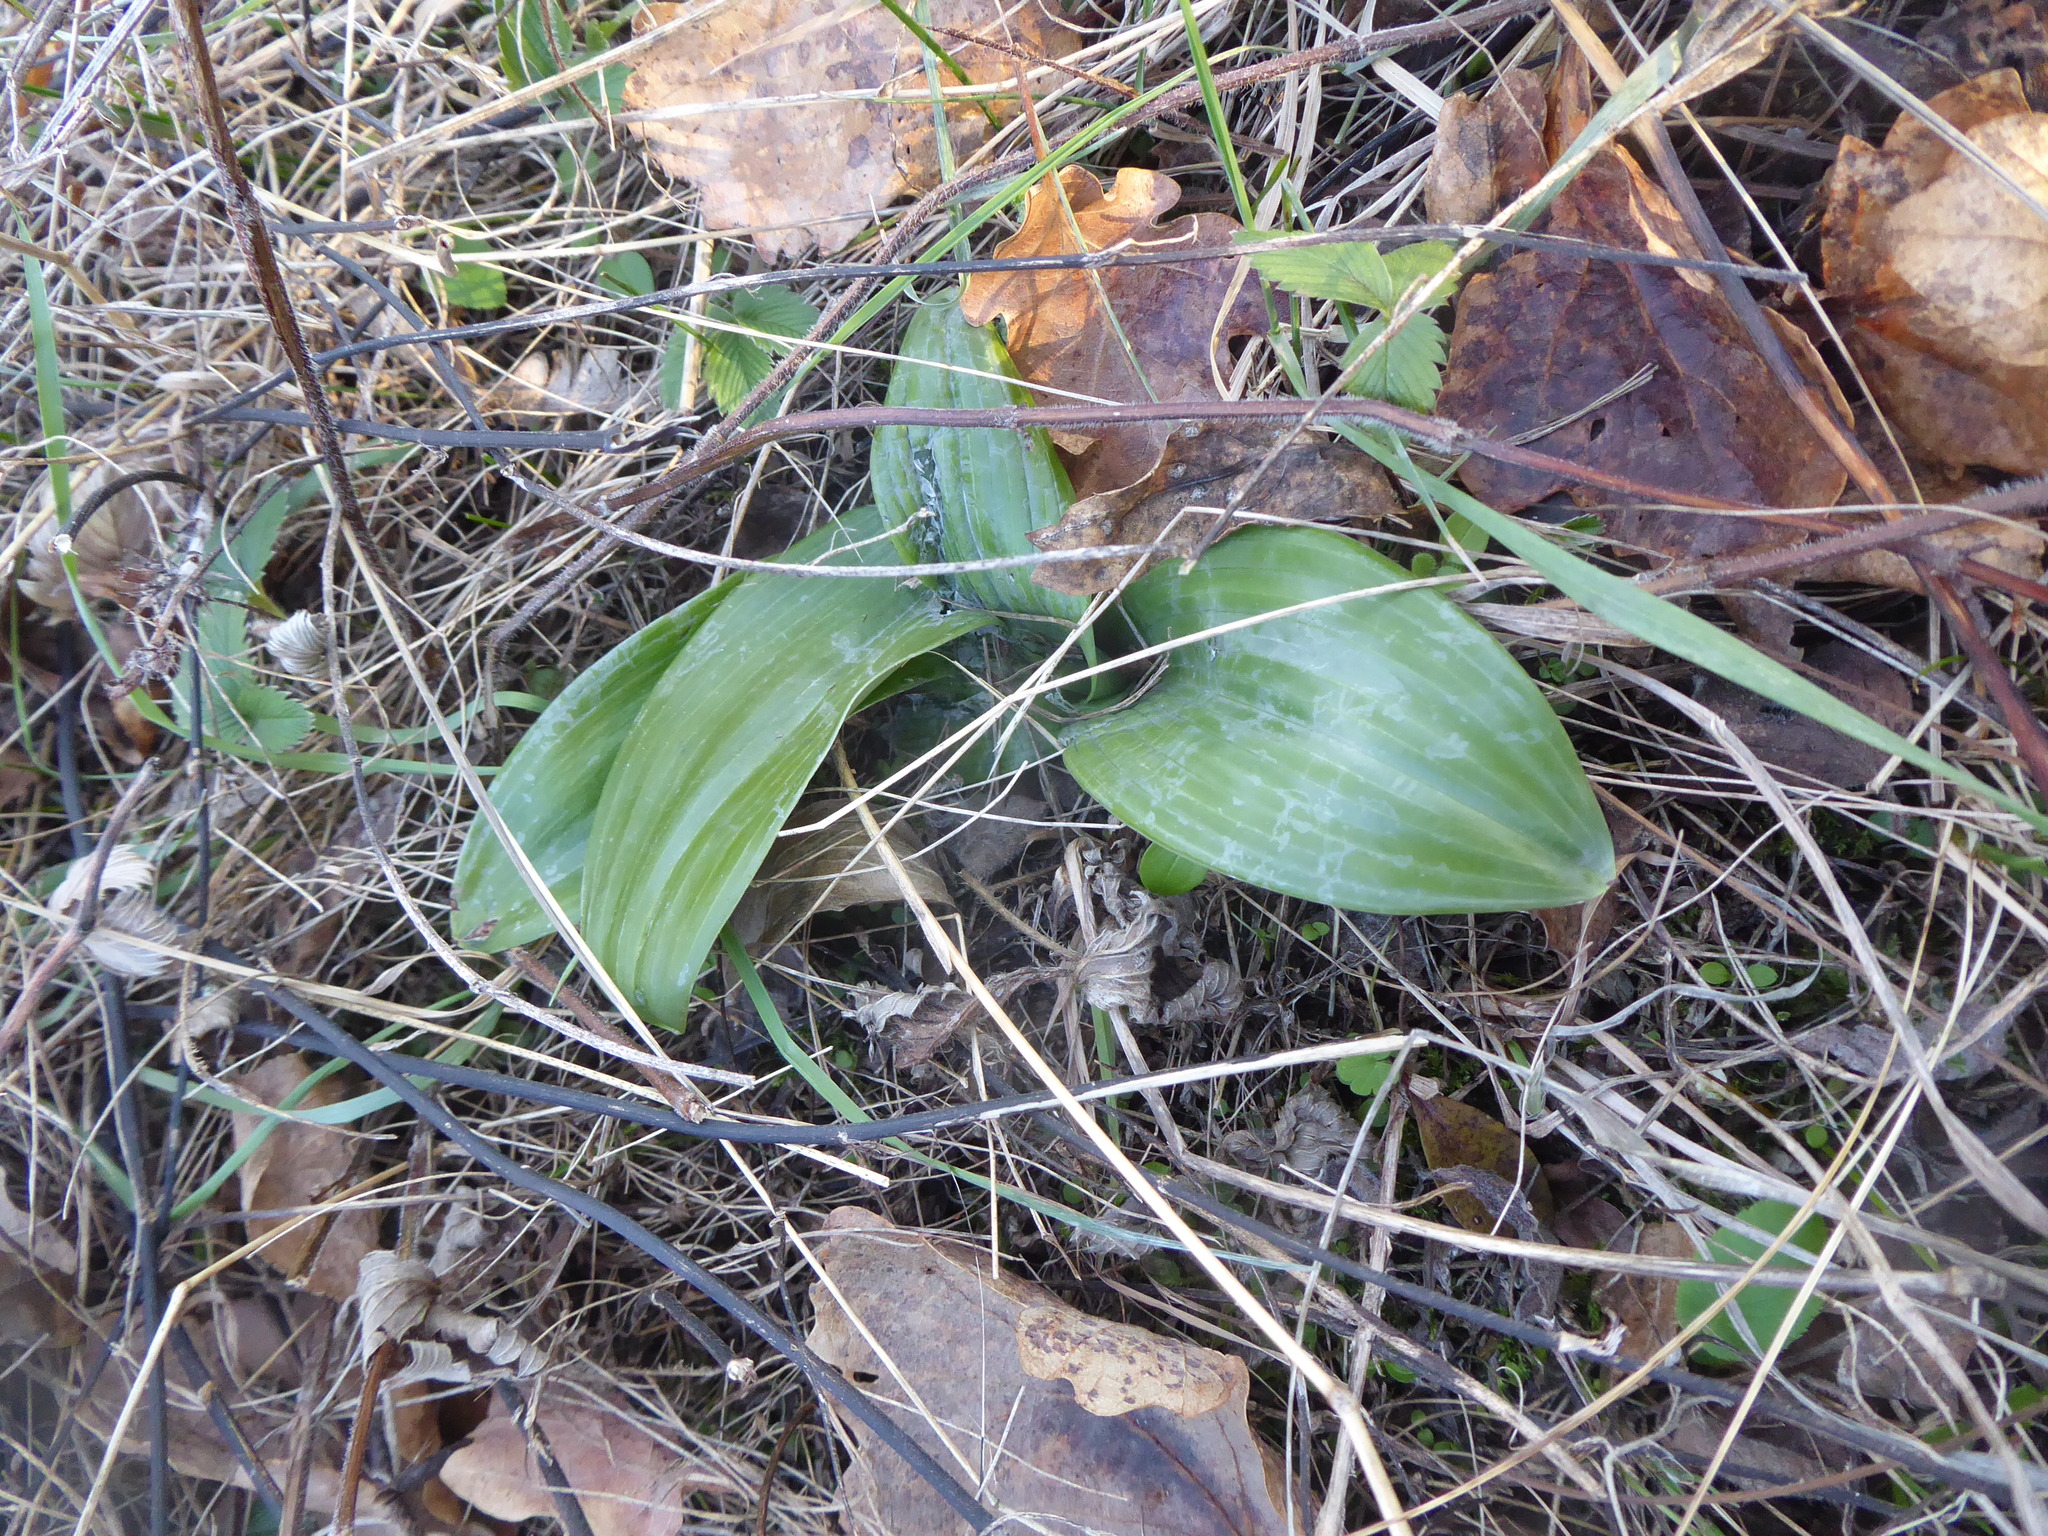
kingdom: Plantae
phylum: Tracheophyta
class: Liliopsida
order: Asparagales
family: Orchidaceae
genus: Himantoglossum
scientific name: Himantoglossum adriaticum
